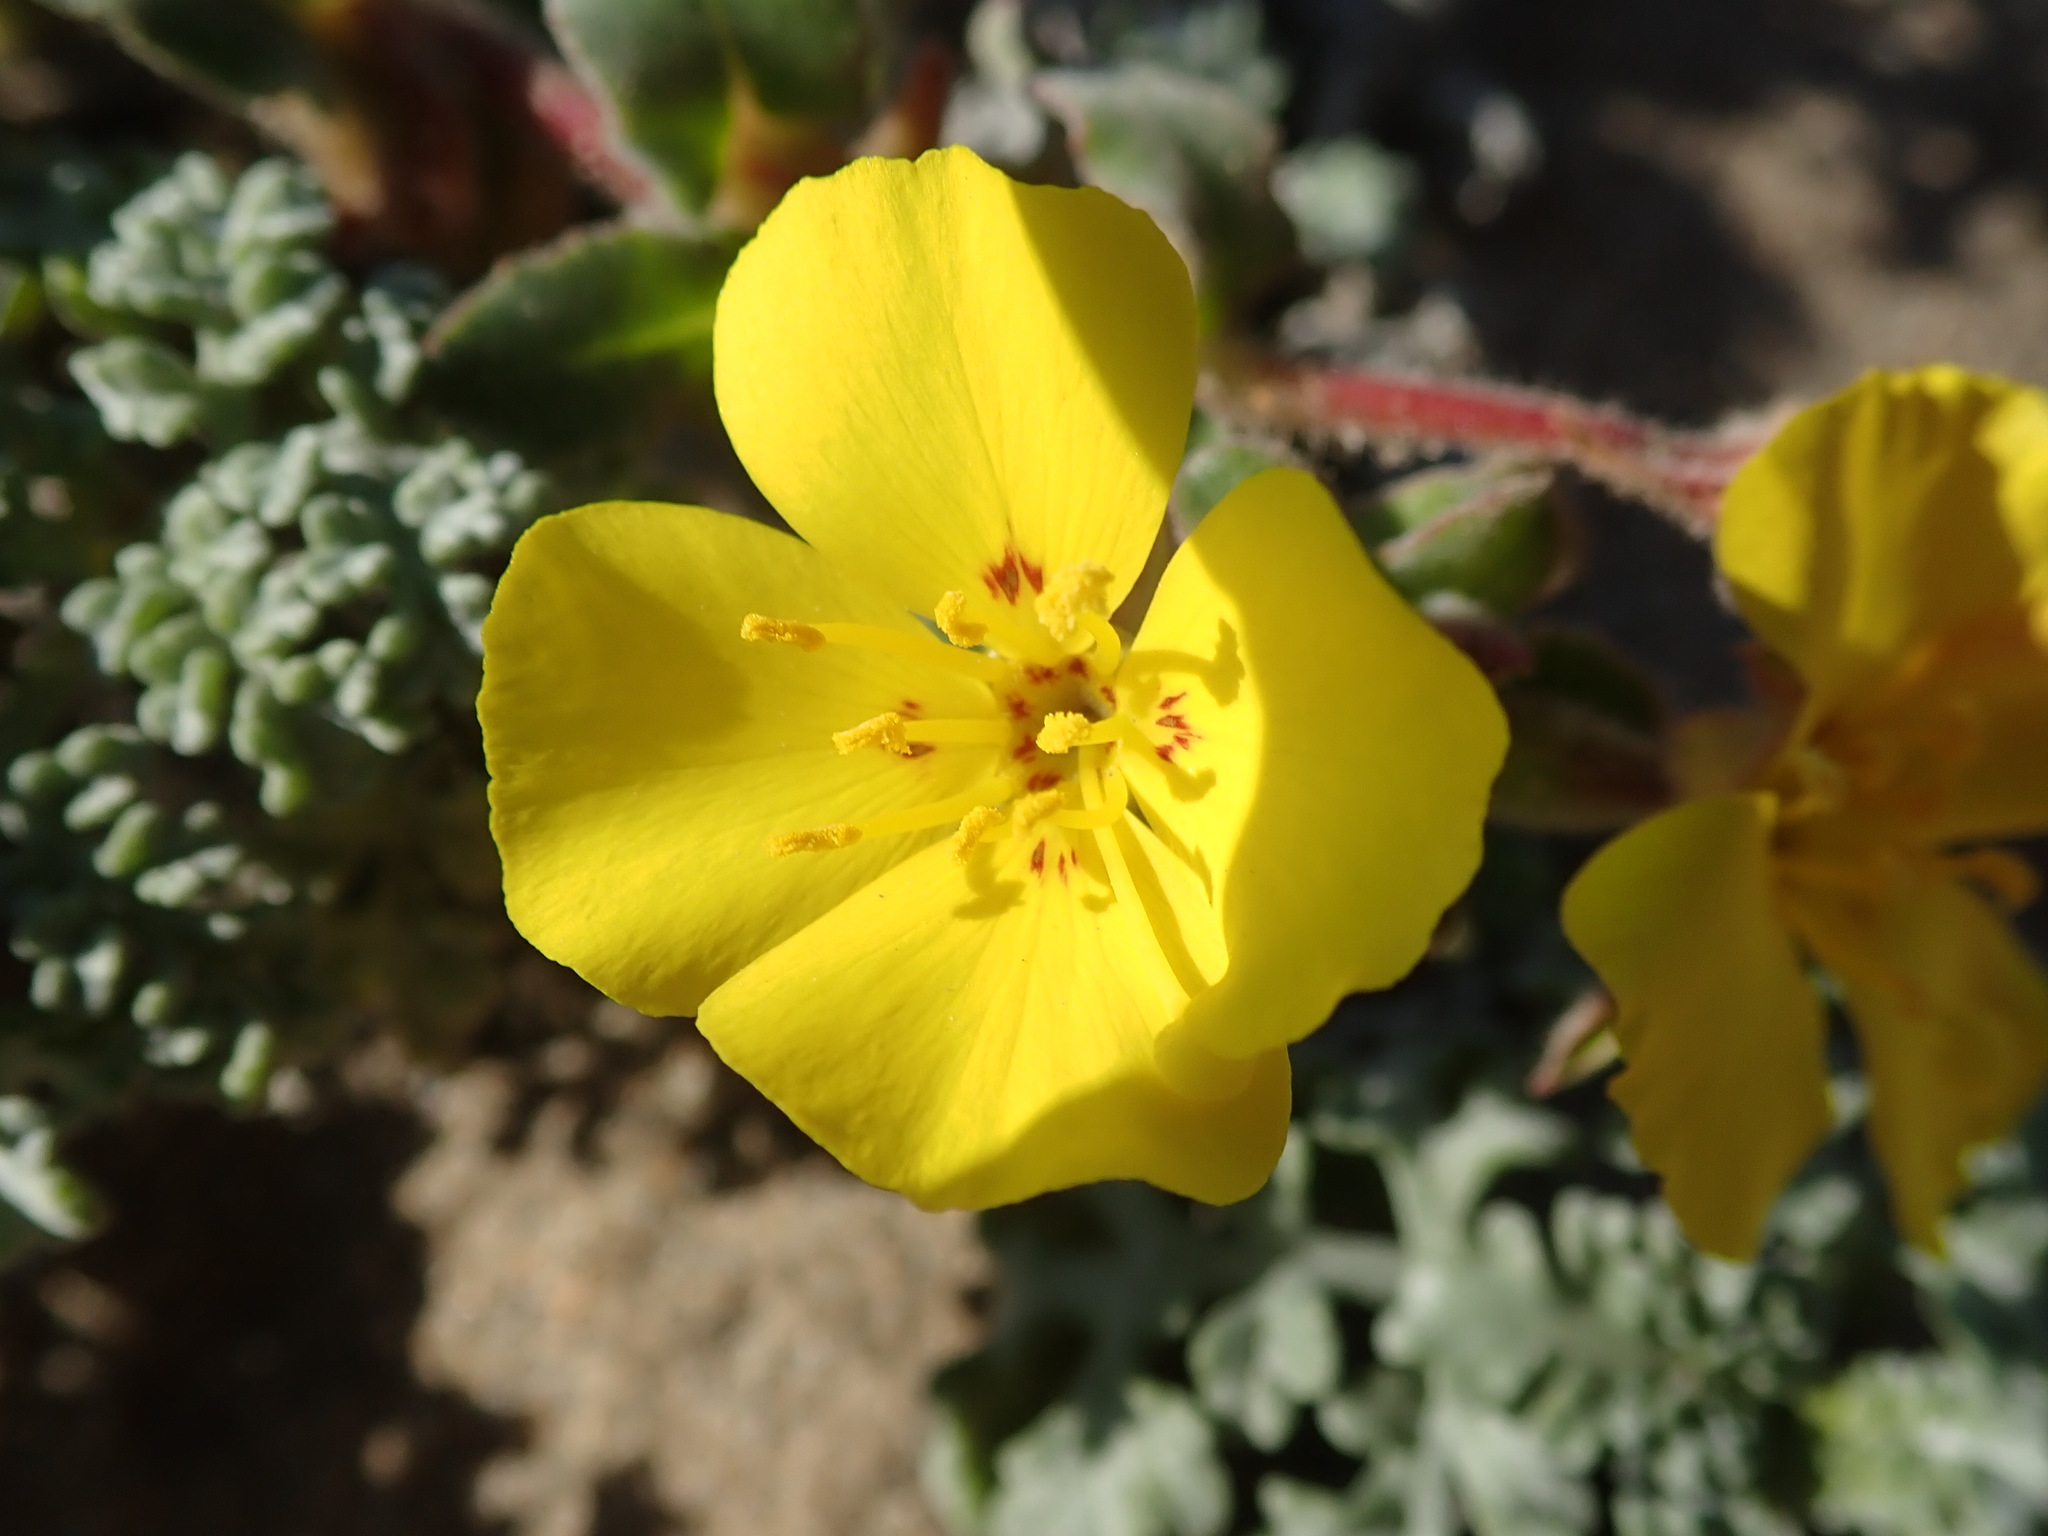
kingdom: Plantae
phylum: Tracheophyta
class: Magnoliopsida
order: Myrtales
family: Onagraceae
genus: Camissoniopsis
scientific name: Camissoniopsis cheiranthifolia
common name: Beach suncup
